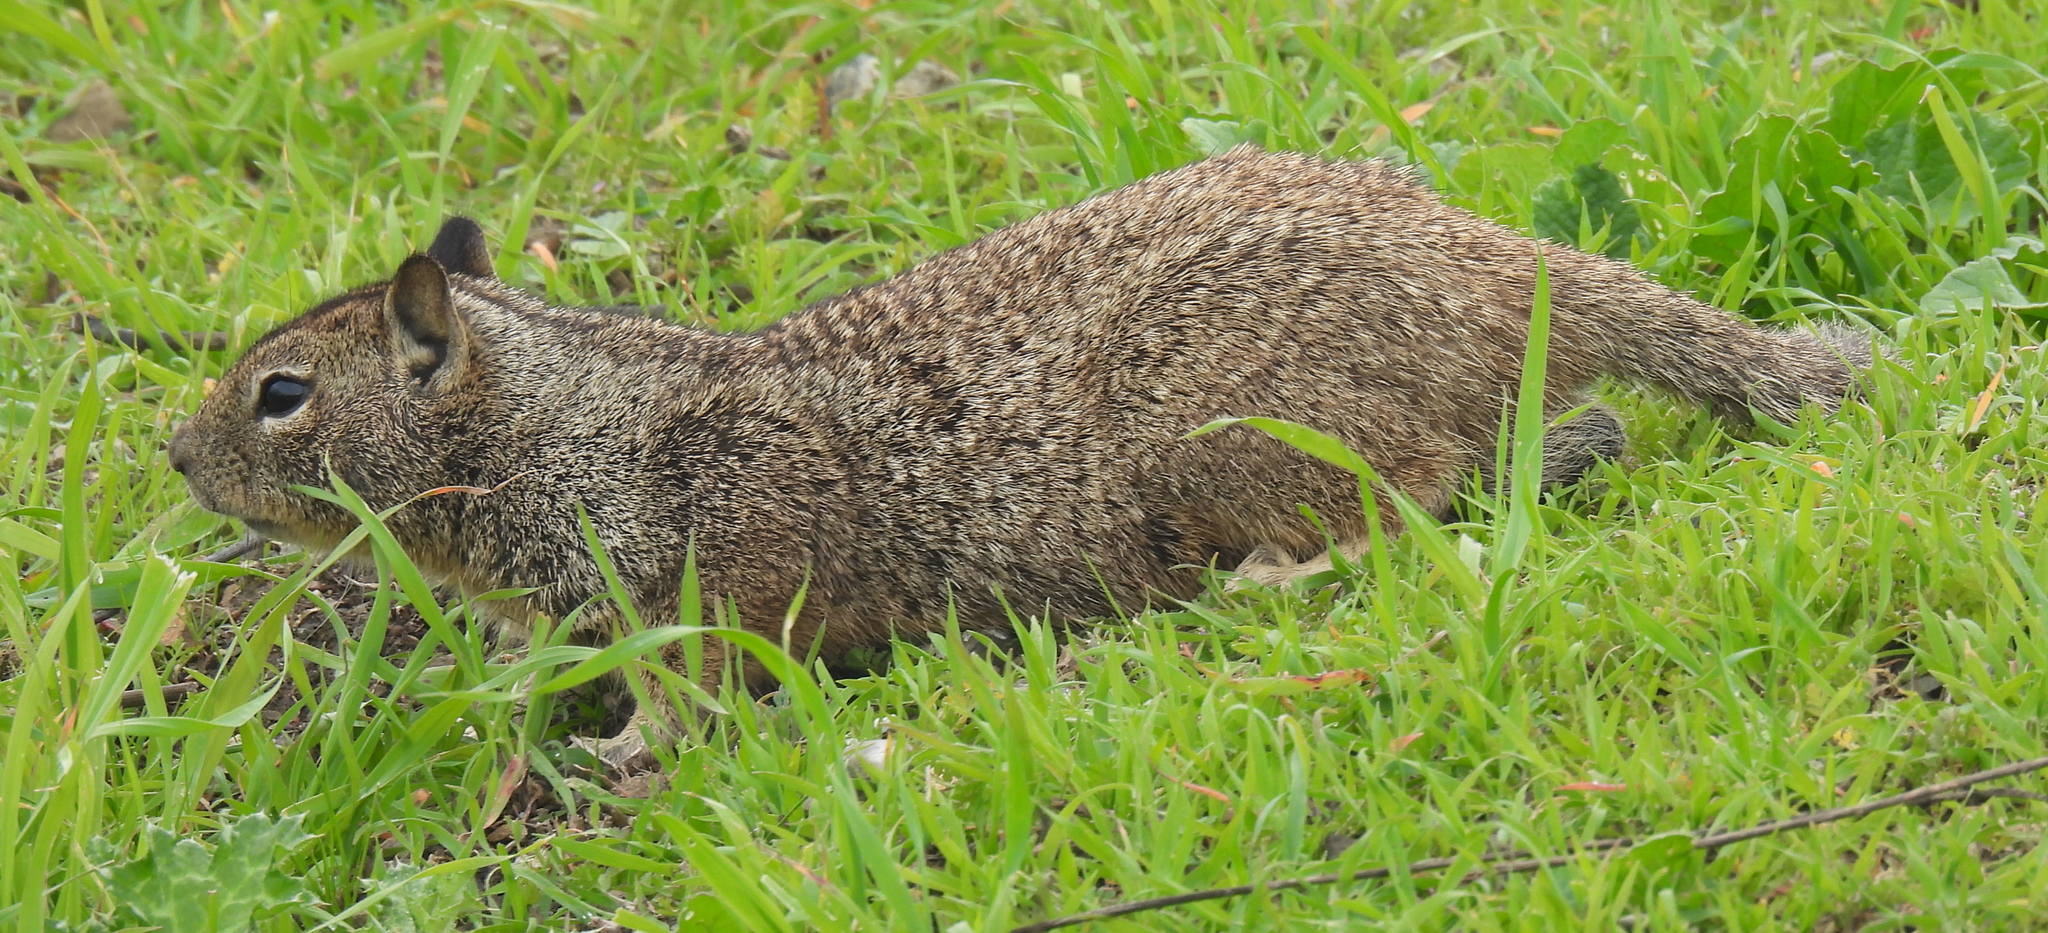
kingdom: Animalia
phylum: Chordata
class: Mammalia
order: Rodentia
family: Sciuridae
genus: Otospermophilus
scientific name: Otospermophilus beecheyi
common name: California ground squirrel
